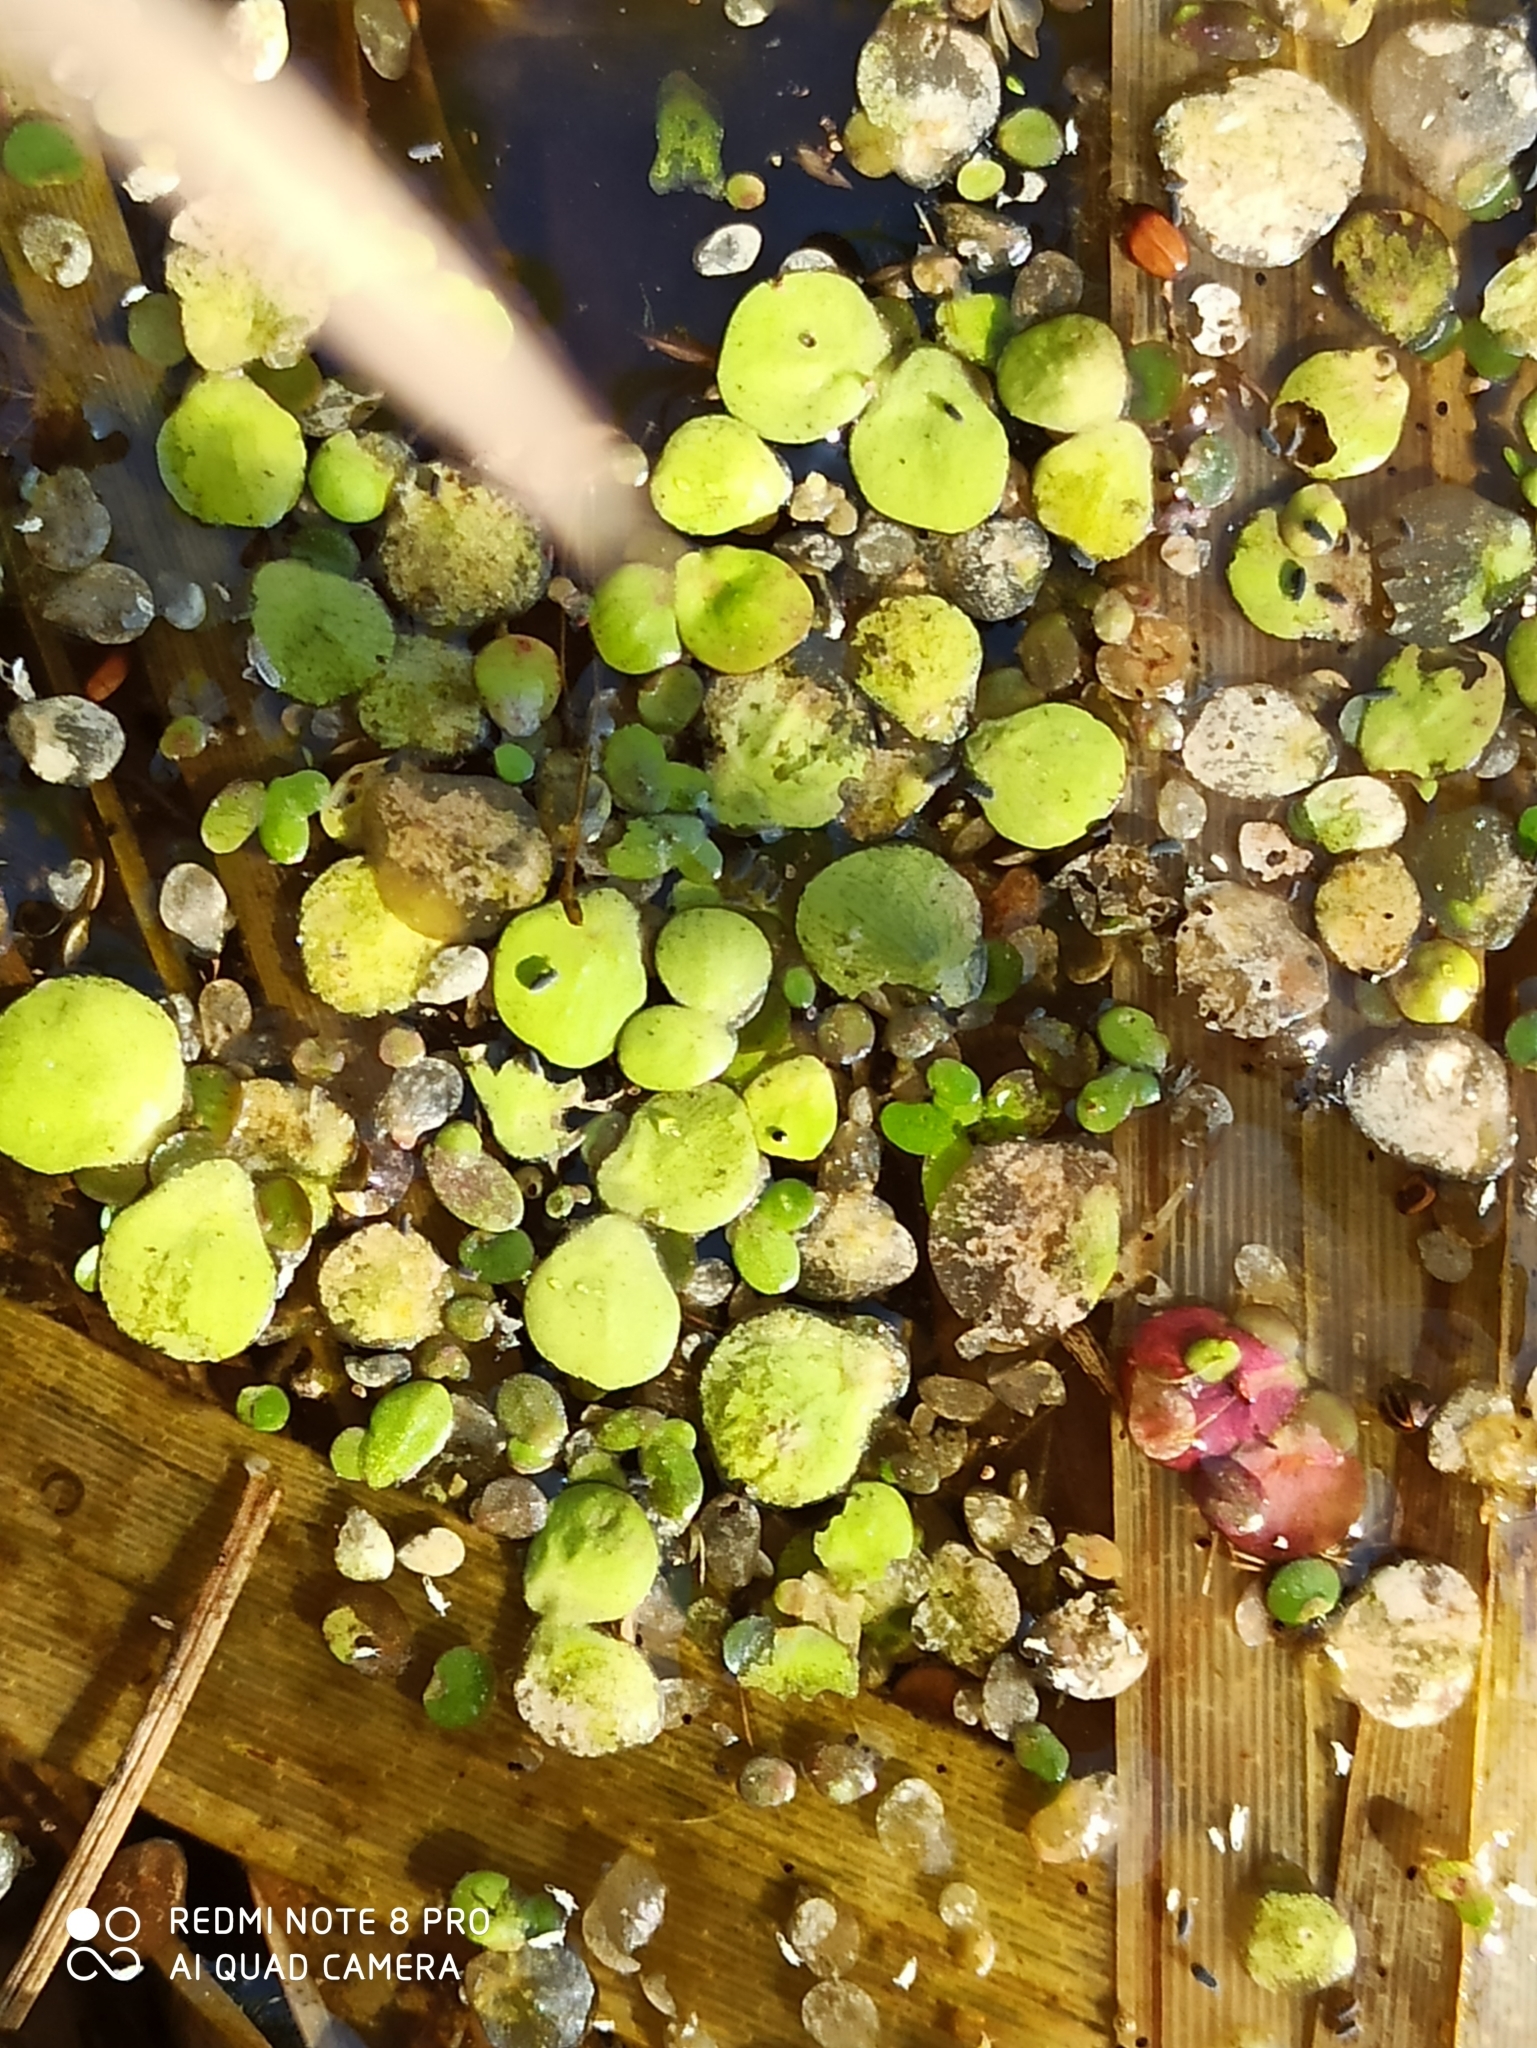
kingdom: Plantae
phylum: Tracheophyta
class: Liliopsida
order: Alismatales
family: Araceae
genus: Spirodela
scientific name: Spirodela polyrhiza
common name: Great duckweed
